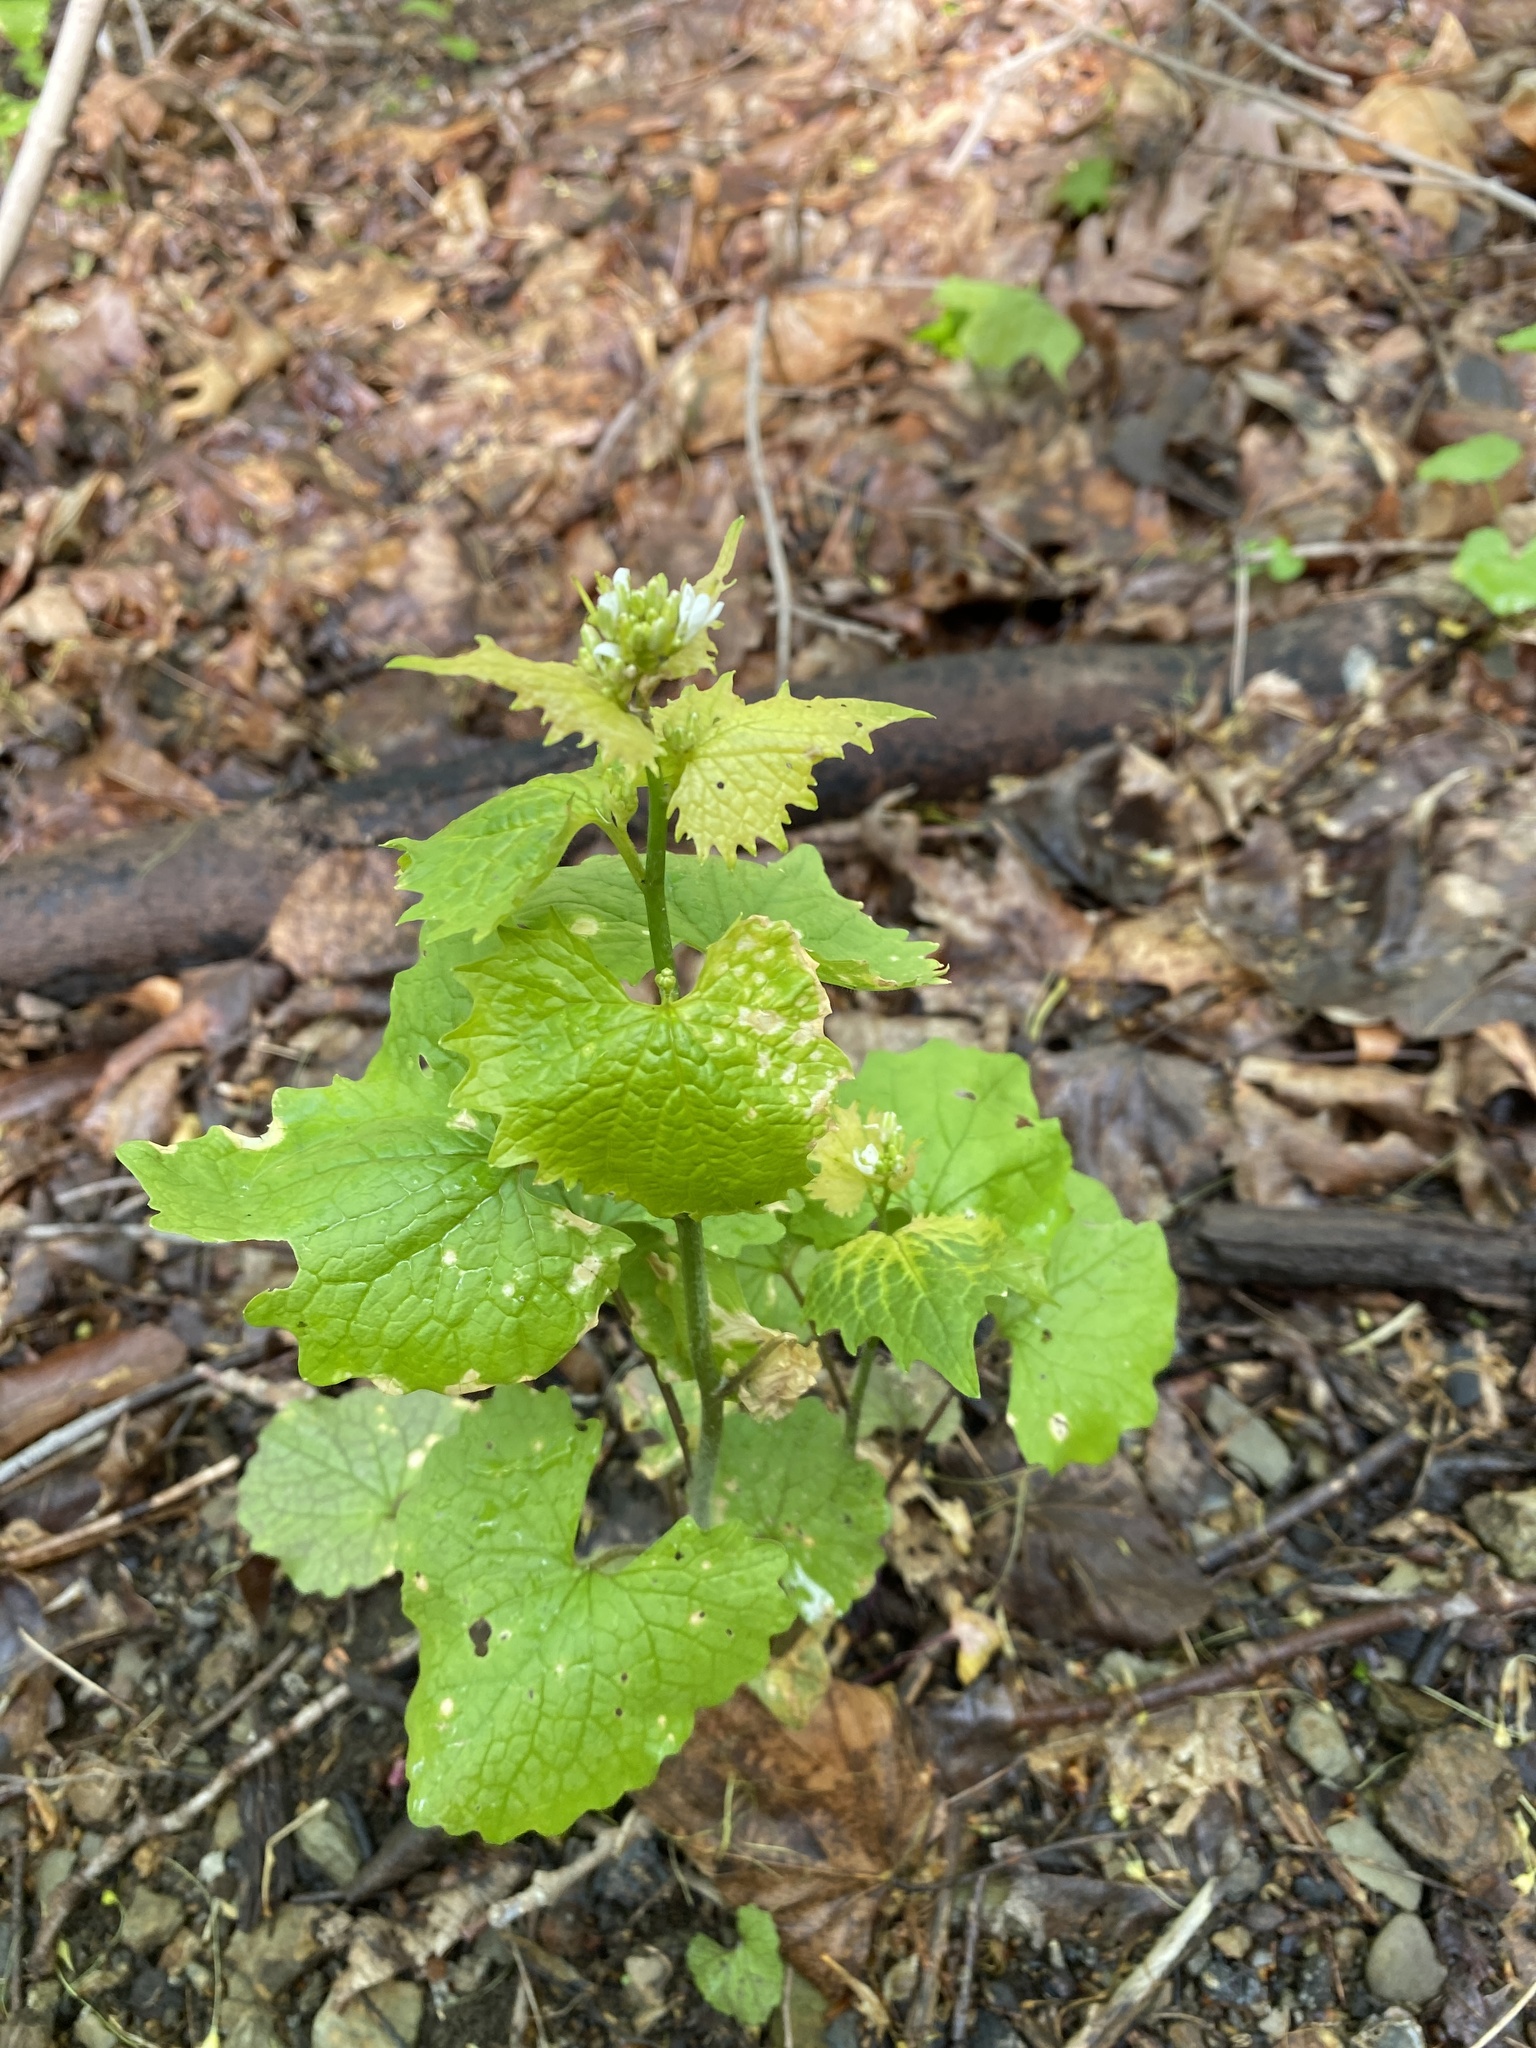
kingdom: Plantae
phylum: Tracheophyta
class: Magnoliopsida
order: Brassicales
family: Brassicaceae
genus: Alliaria
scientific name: Alliaria petiolata
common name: Garlic mustard
